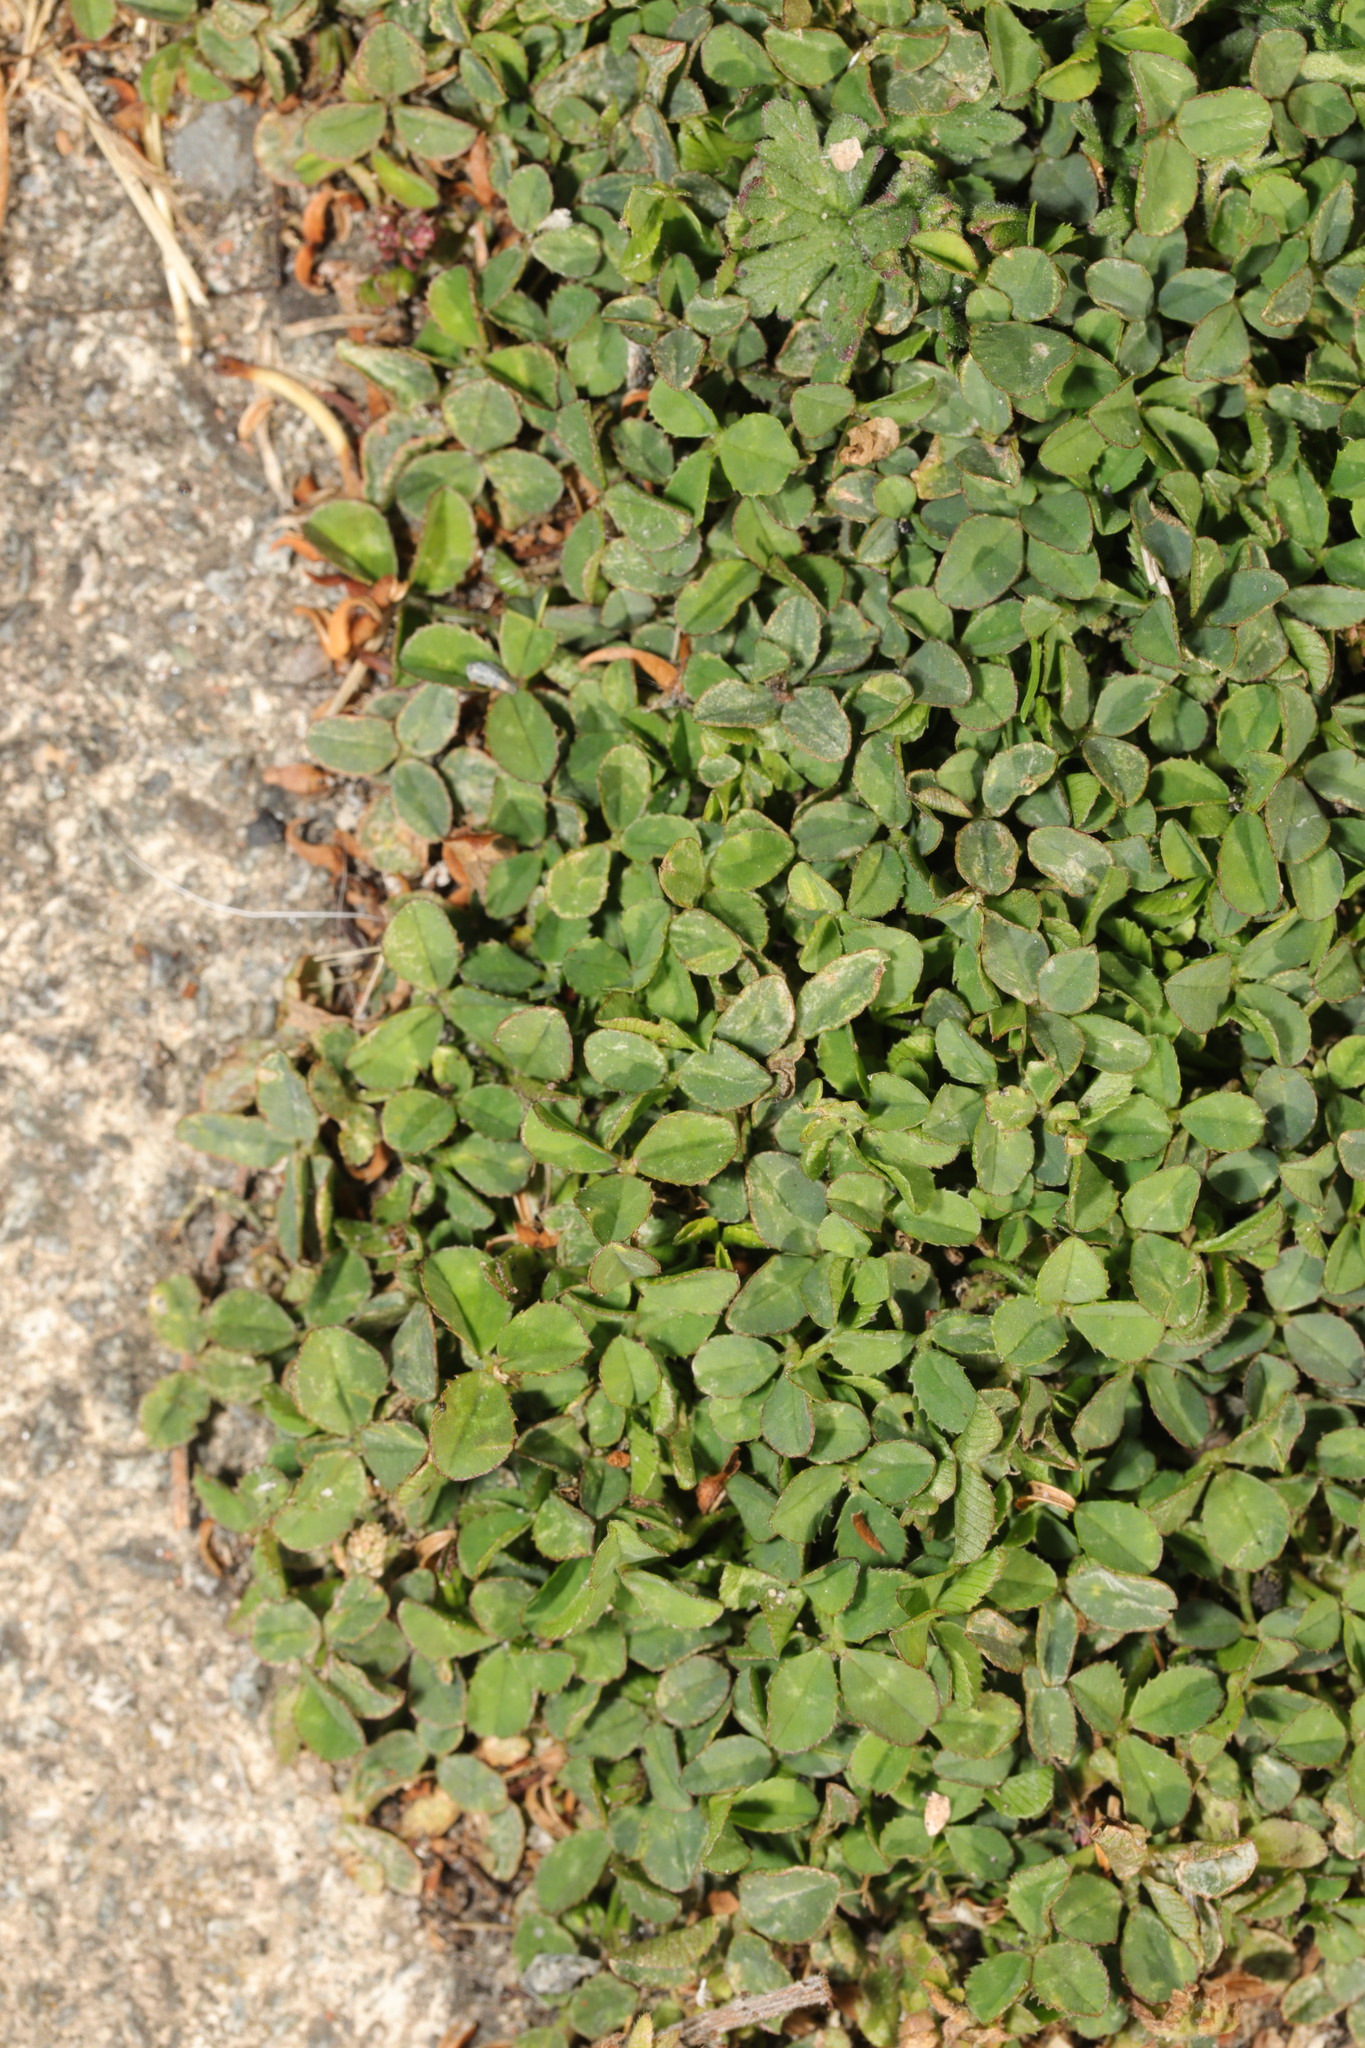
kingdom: Plantae
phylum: Tracheophyta
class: Magnoliopsida
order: Fabales
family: Fabaceae
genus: Trifolium
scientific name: Trifolium repens
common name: White clover
